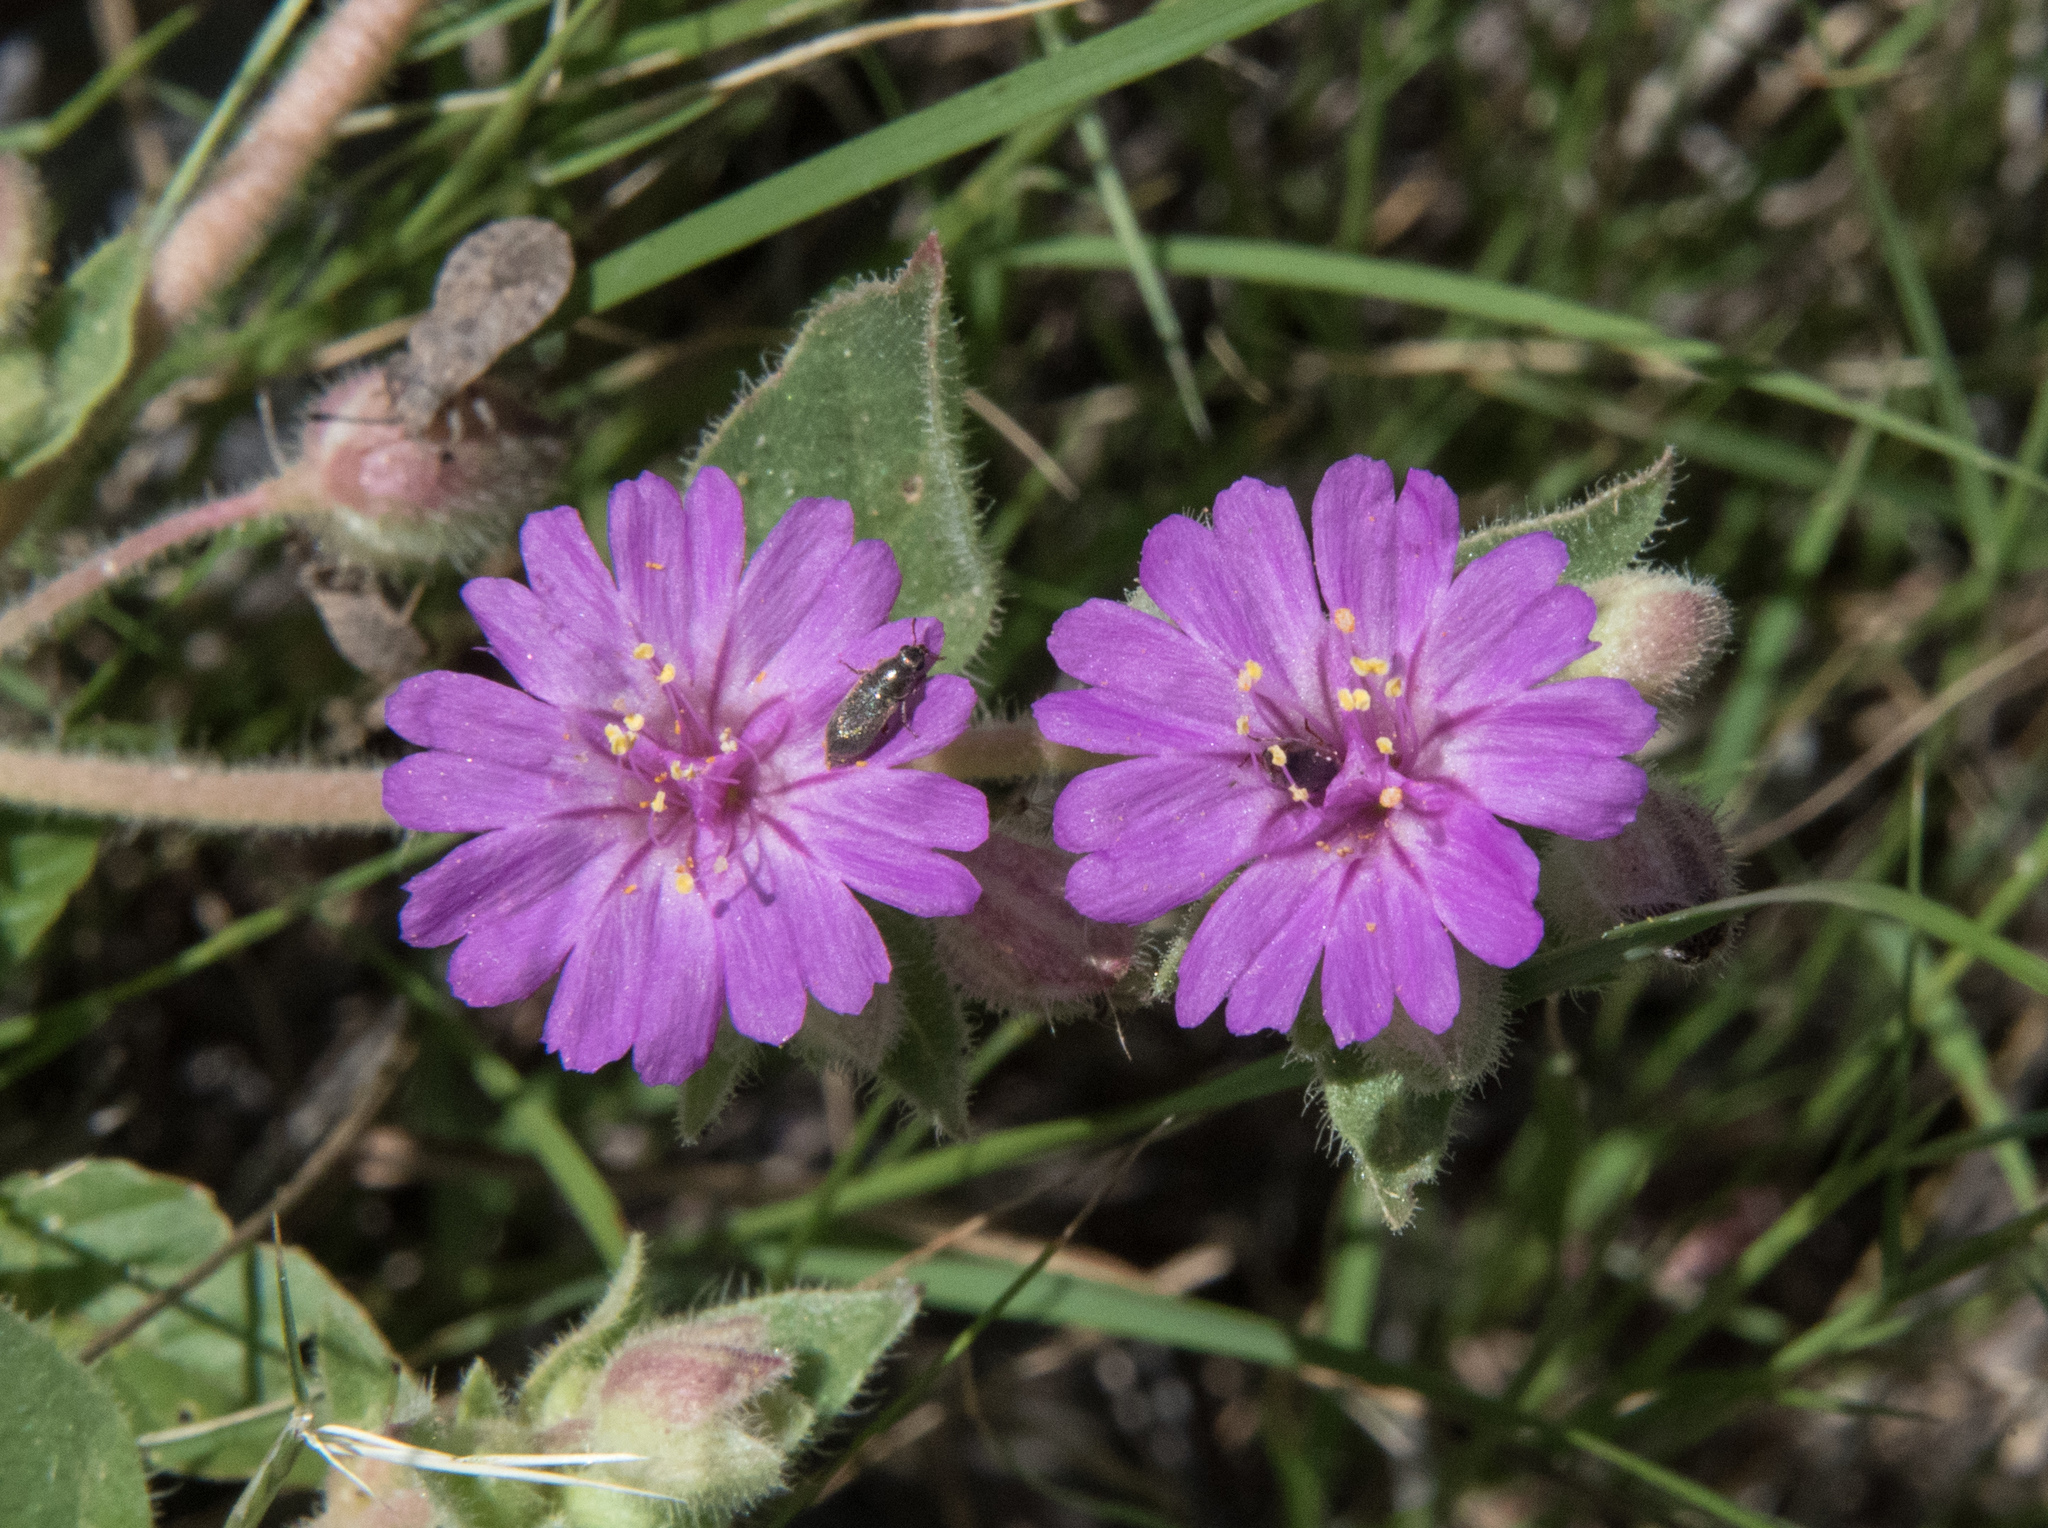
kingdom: Plantae
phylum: Tracheophyta
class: Magnoliopsida
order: Caryophyllales
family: Nyctaginaceae
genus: Allionia
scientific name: Allionia incarnata
